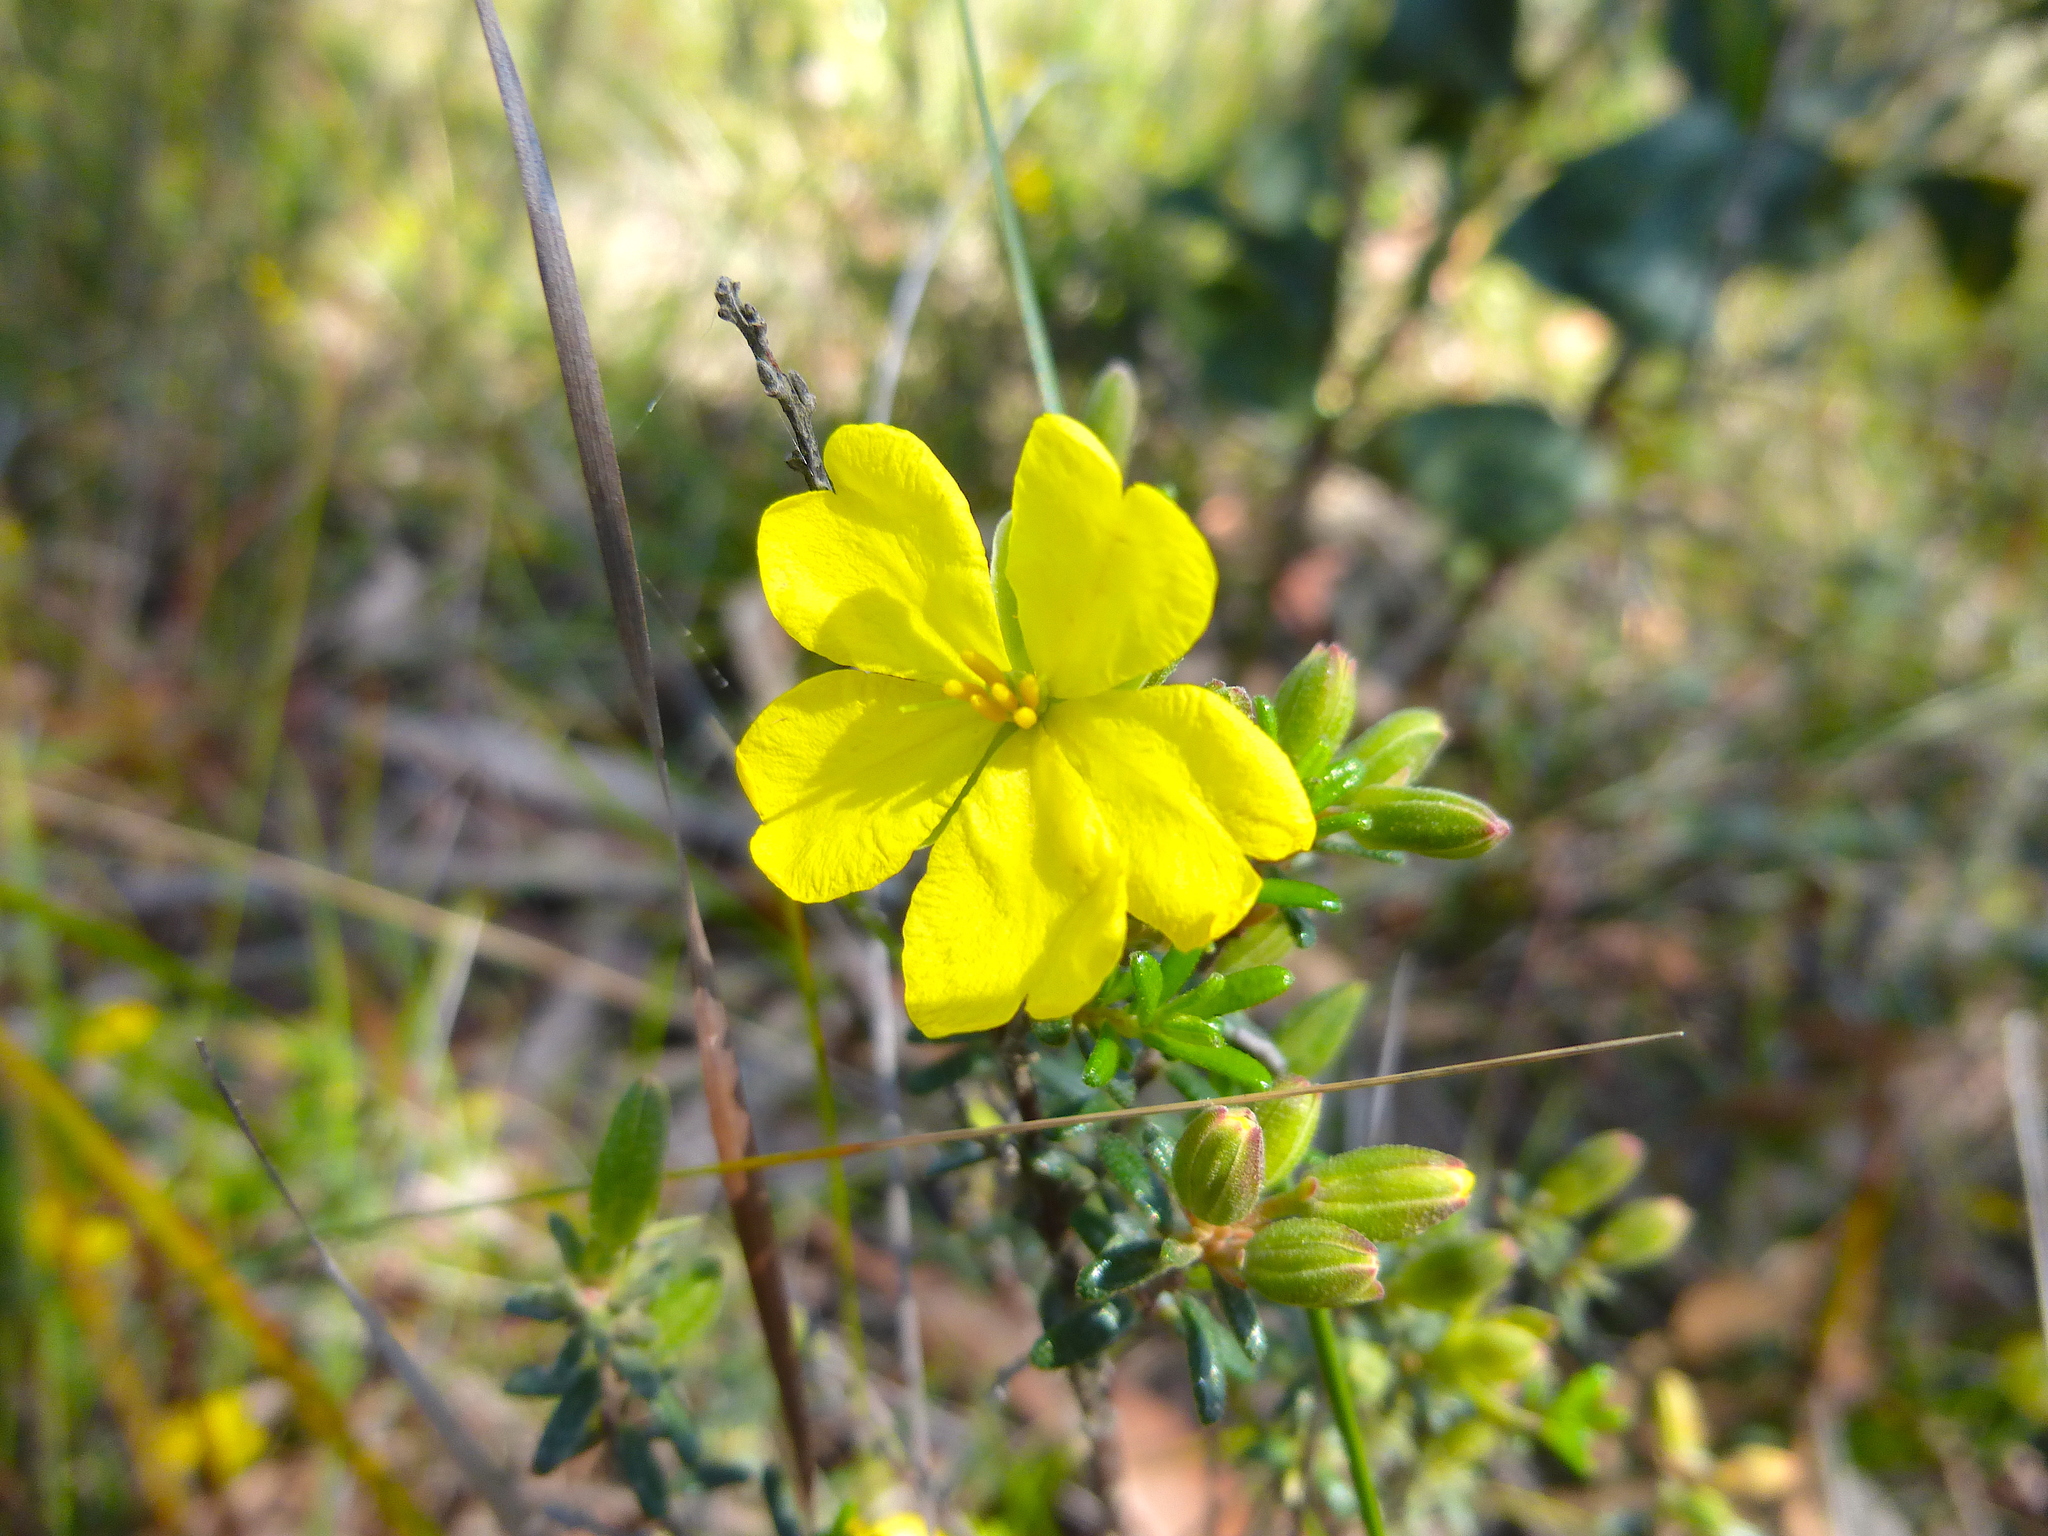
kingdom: Plantae
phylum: Tracheophyta
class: Magnoliopsida
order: Dilleniales
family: Dilleniaceae
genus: Hibbertia
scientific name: Hibbertia riparia
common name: Erect guinea-flower
